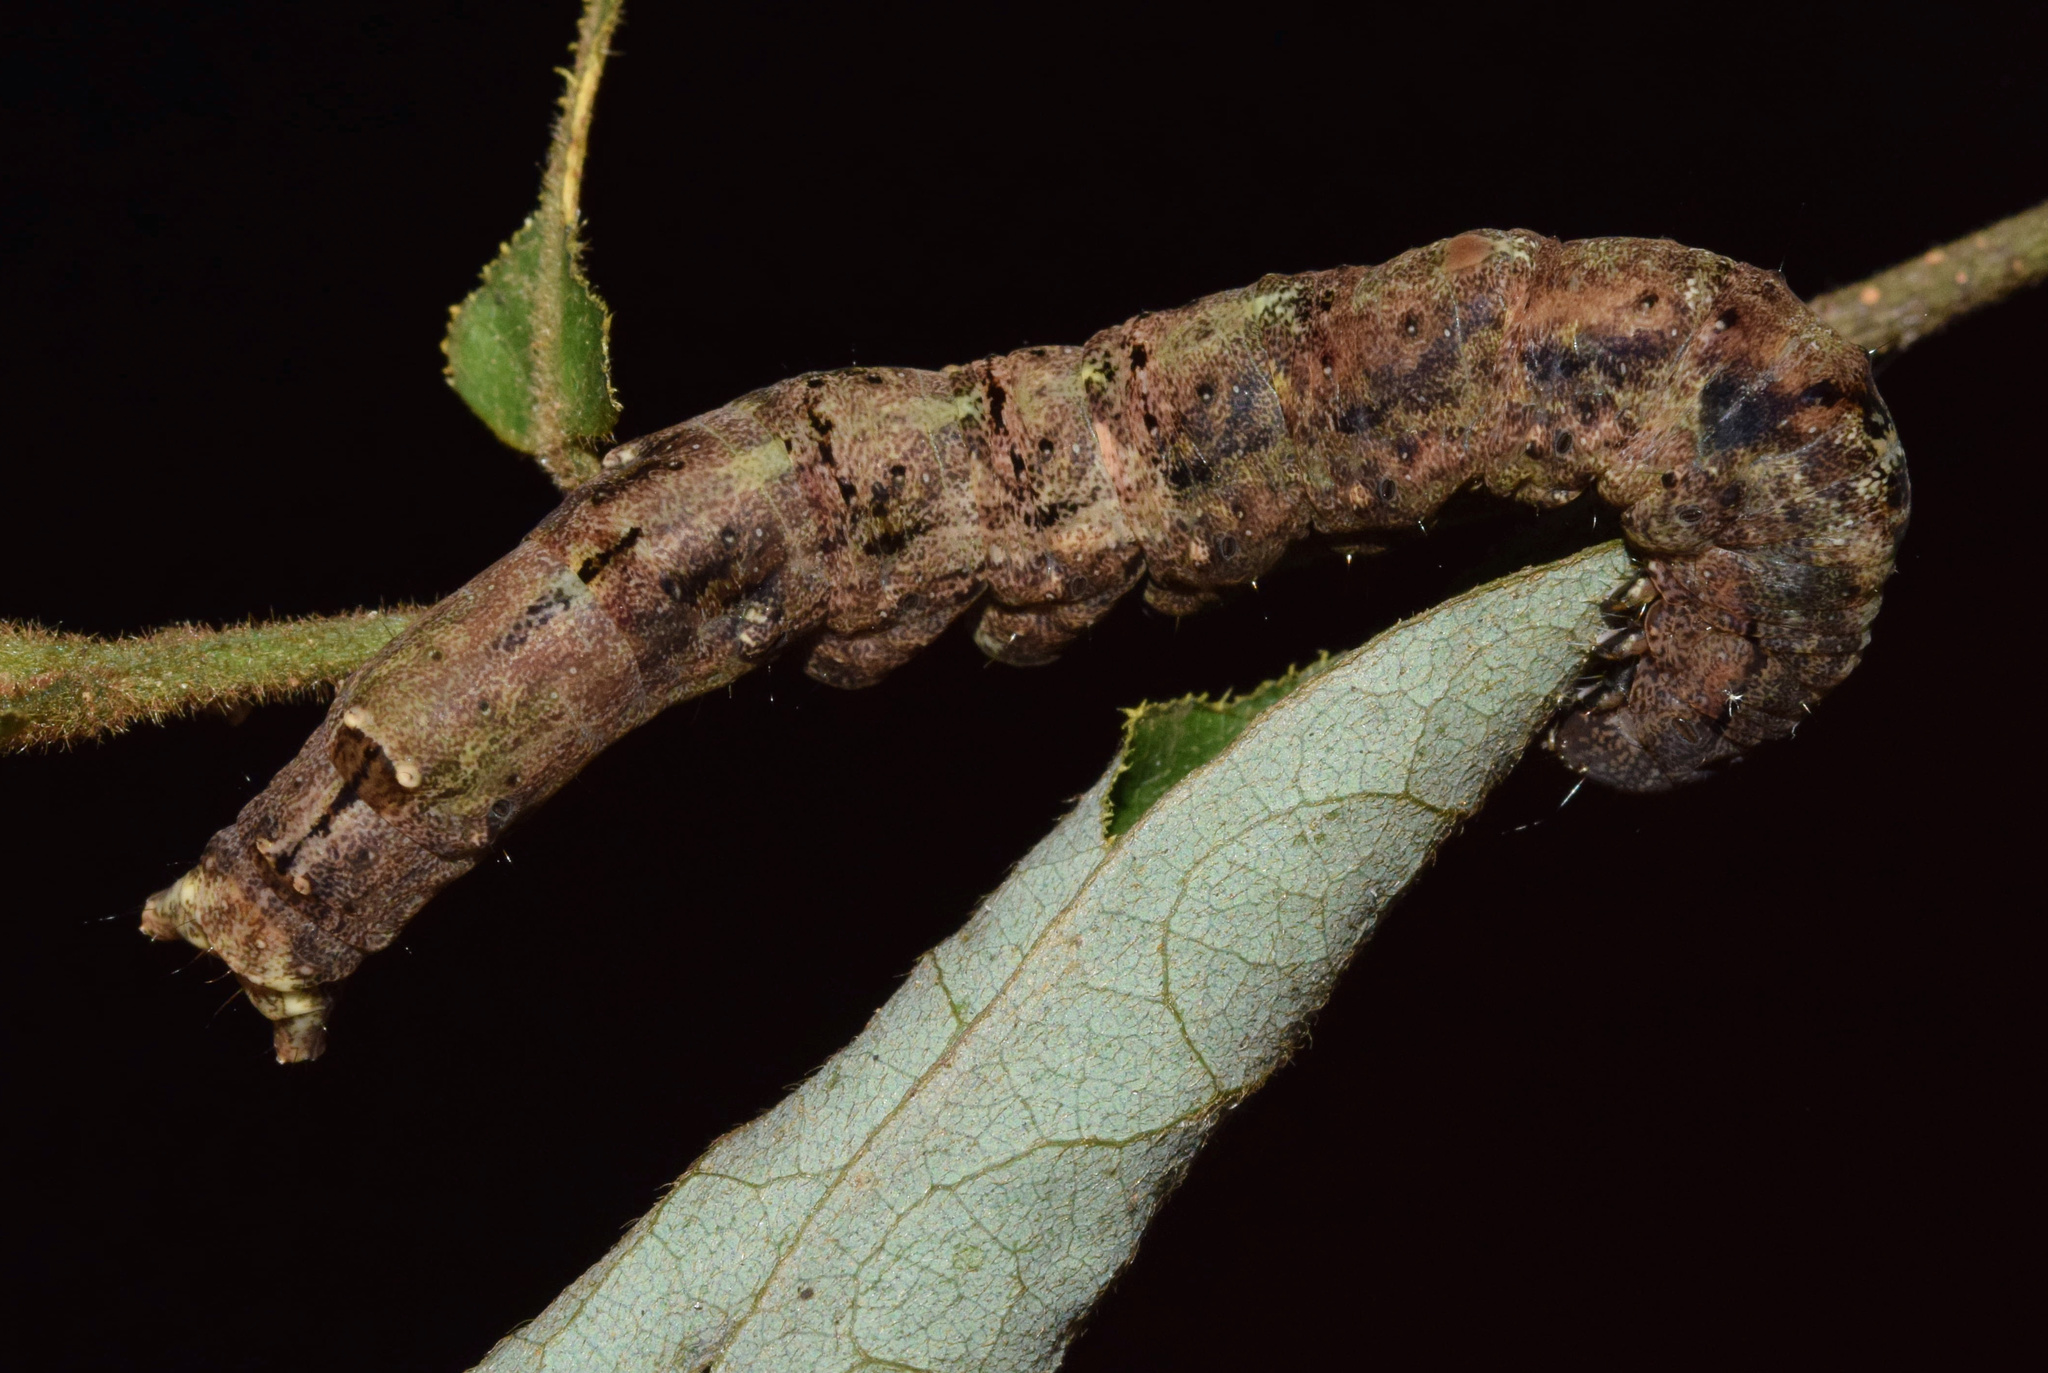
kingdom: Animalia
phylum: Arthropoda
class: Insecta
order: Lepidoptera
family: Erebidae
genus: Platyja
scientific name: Platyja vacillans
